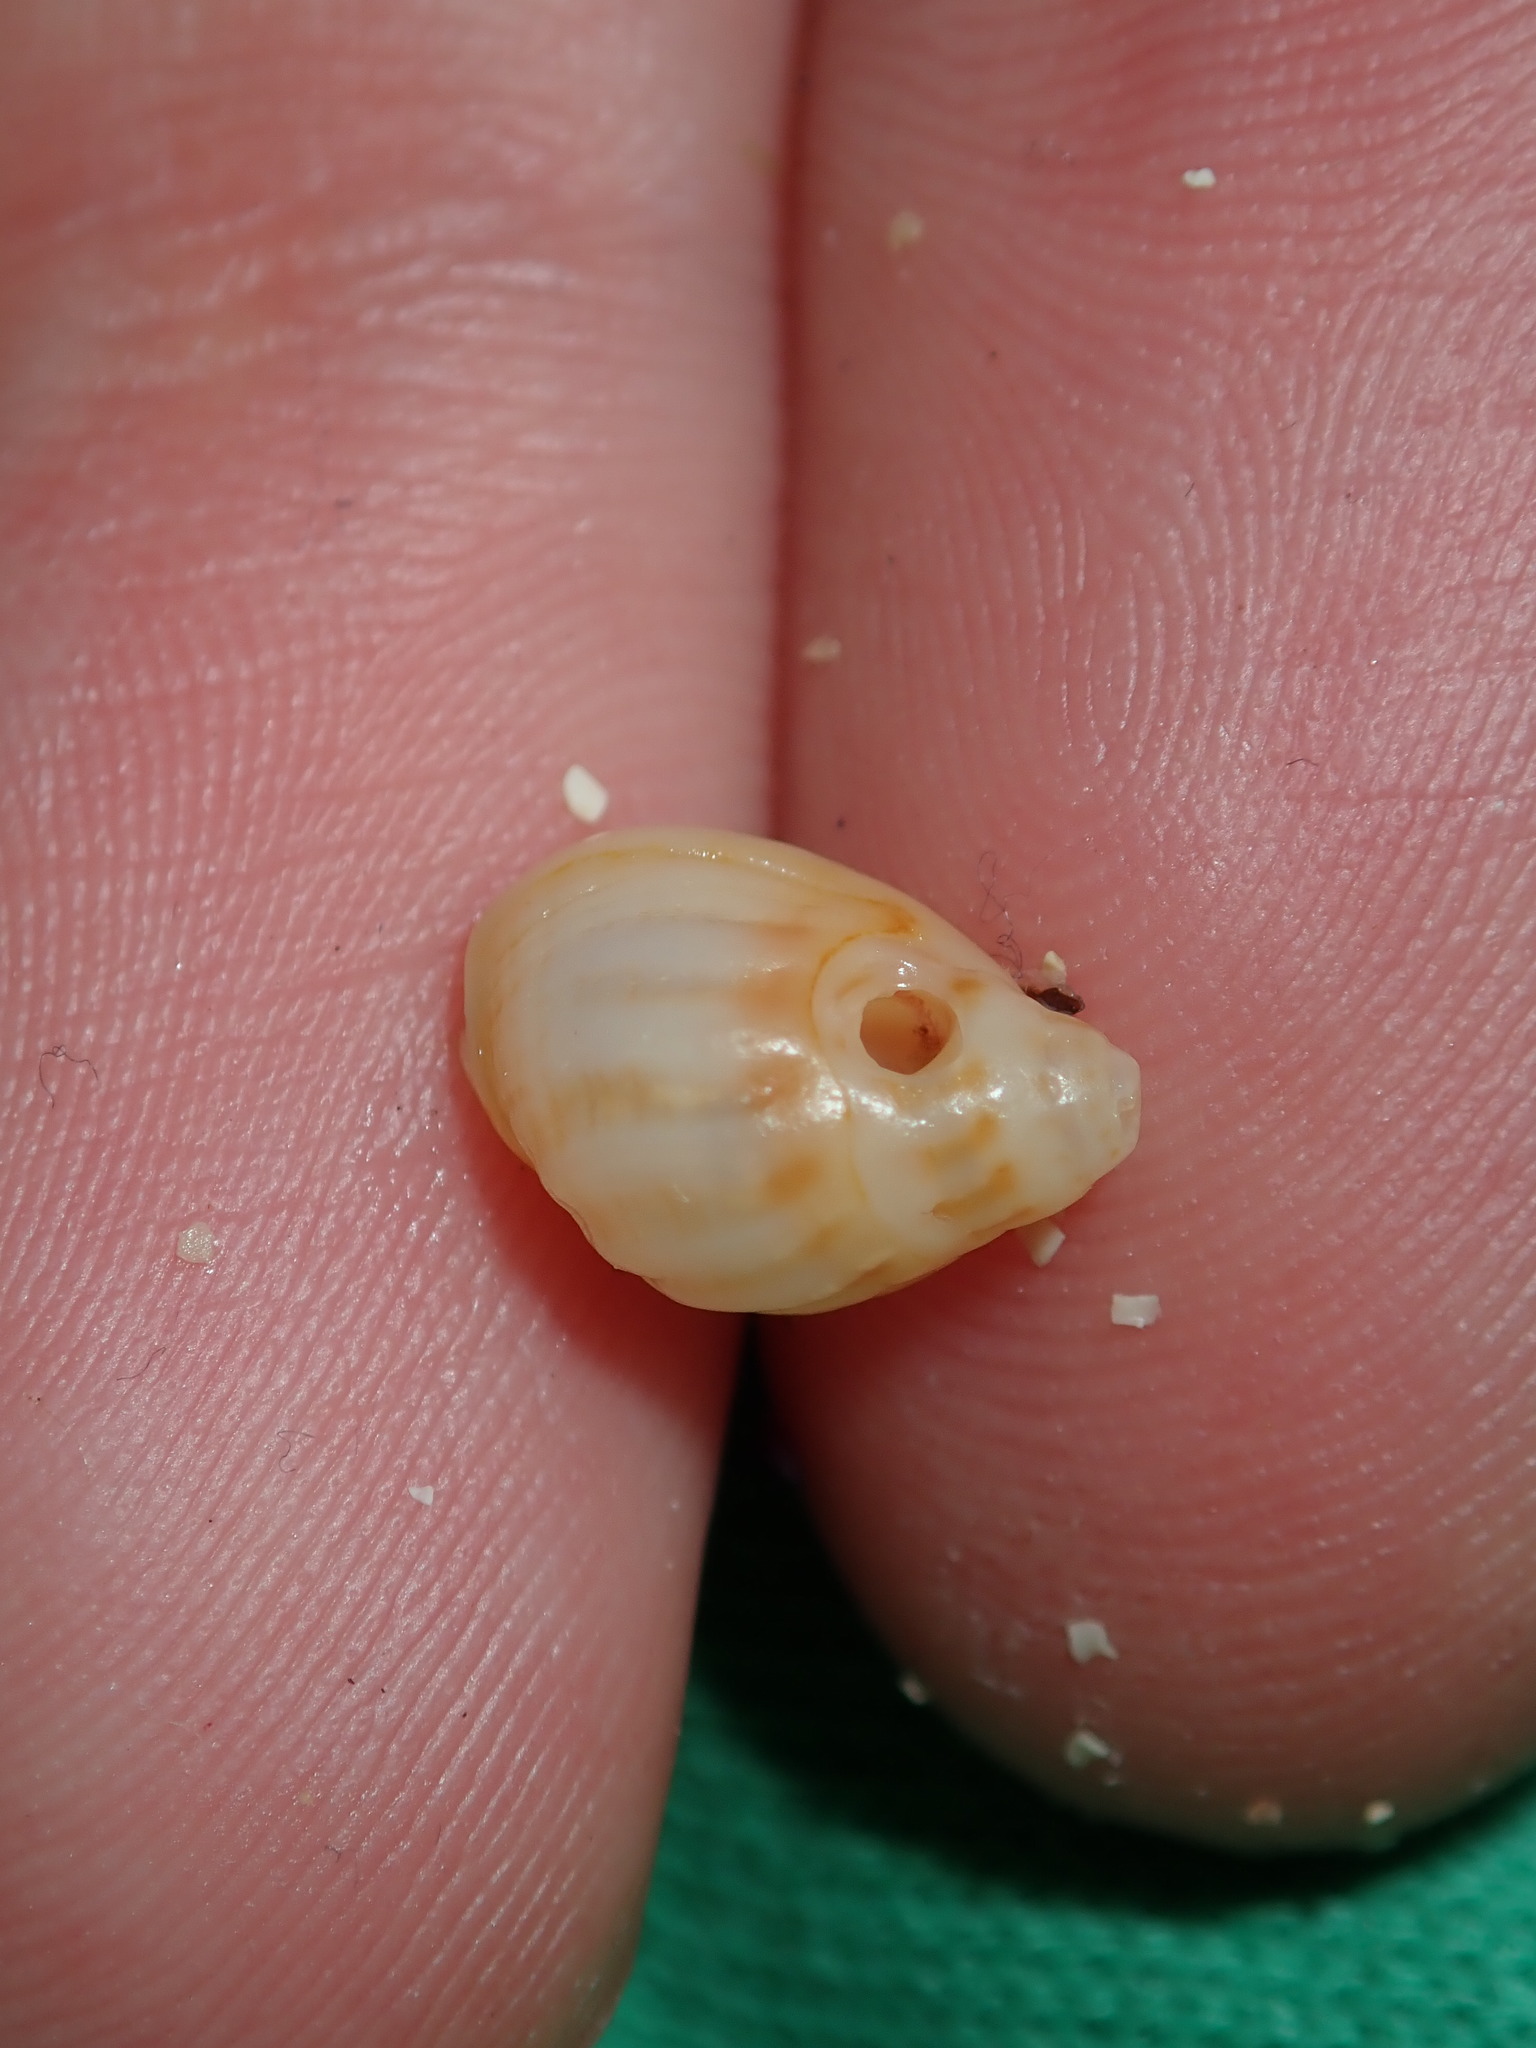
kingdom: Animalia
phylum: Mollusca
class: Gastropoda
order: Neogastropoda
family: Nassariidae
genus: Nassarius
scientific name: Nassarius jonasii
